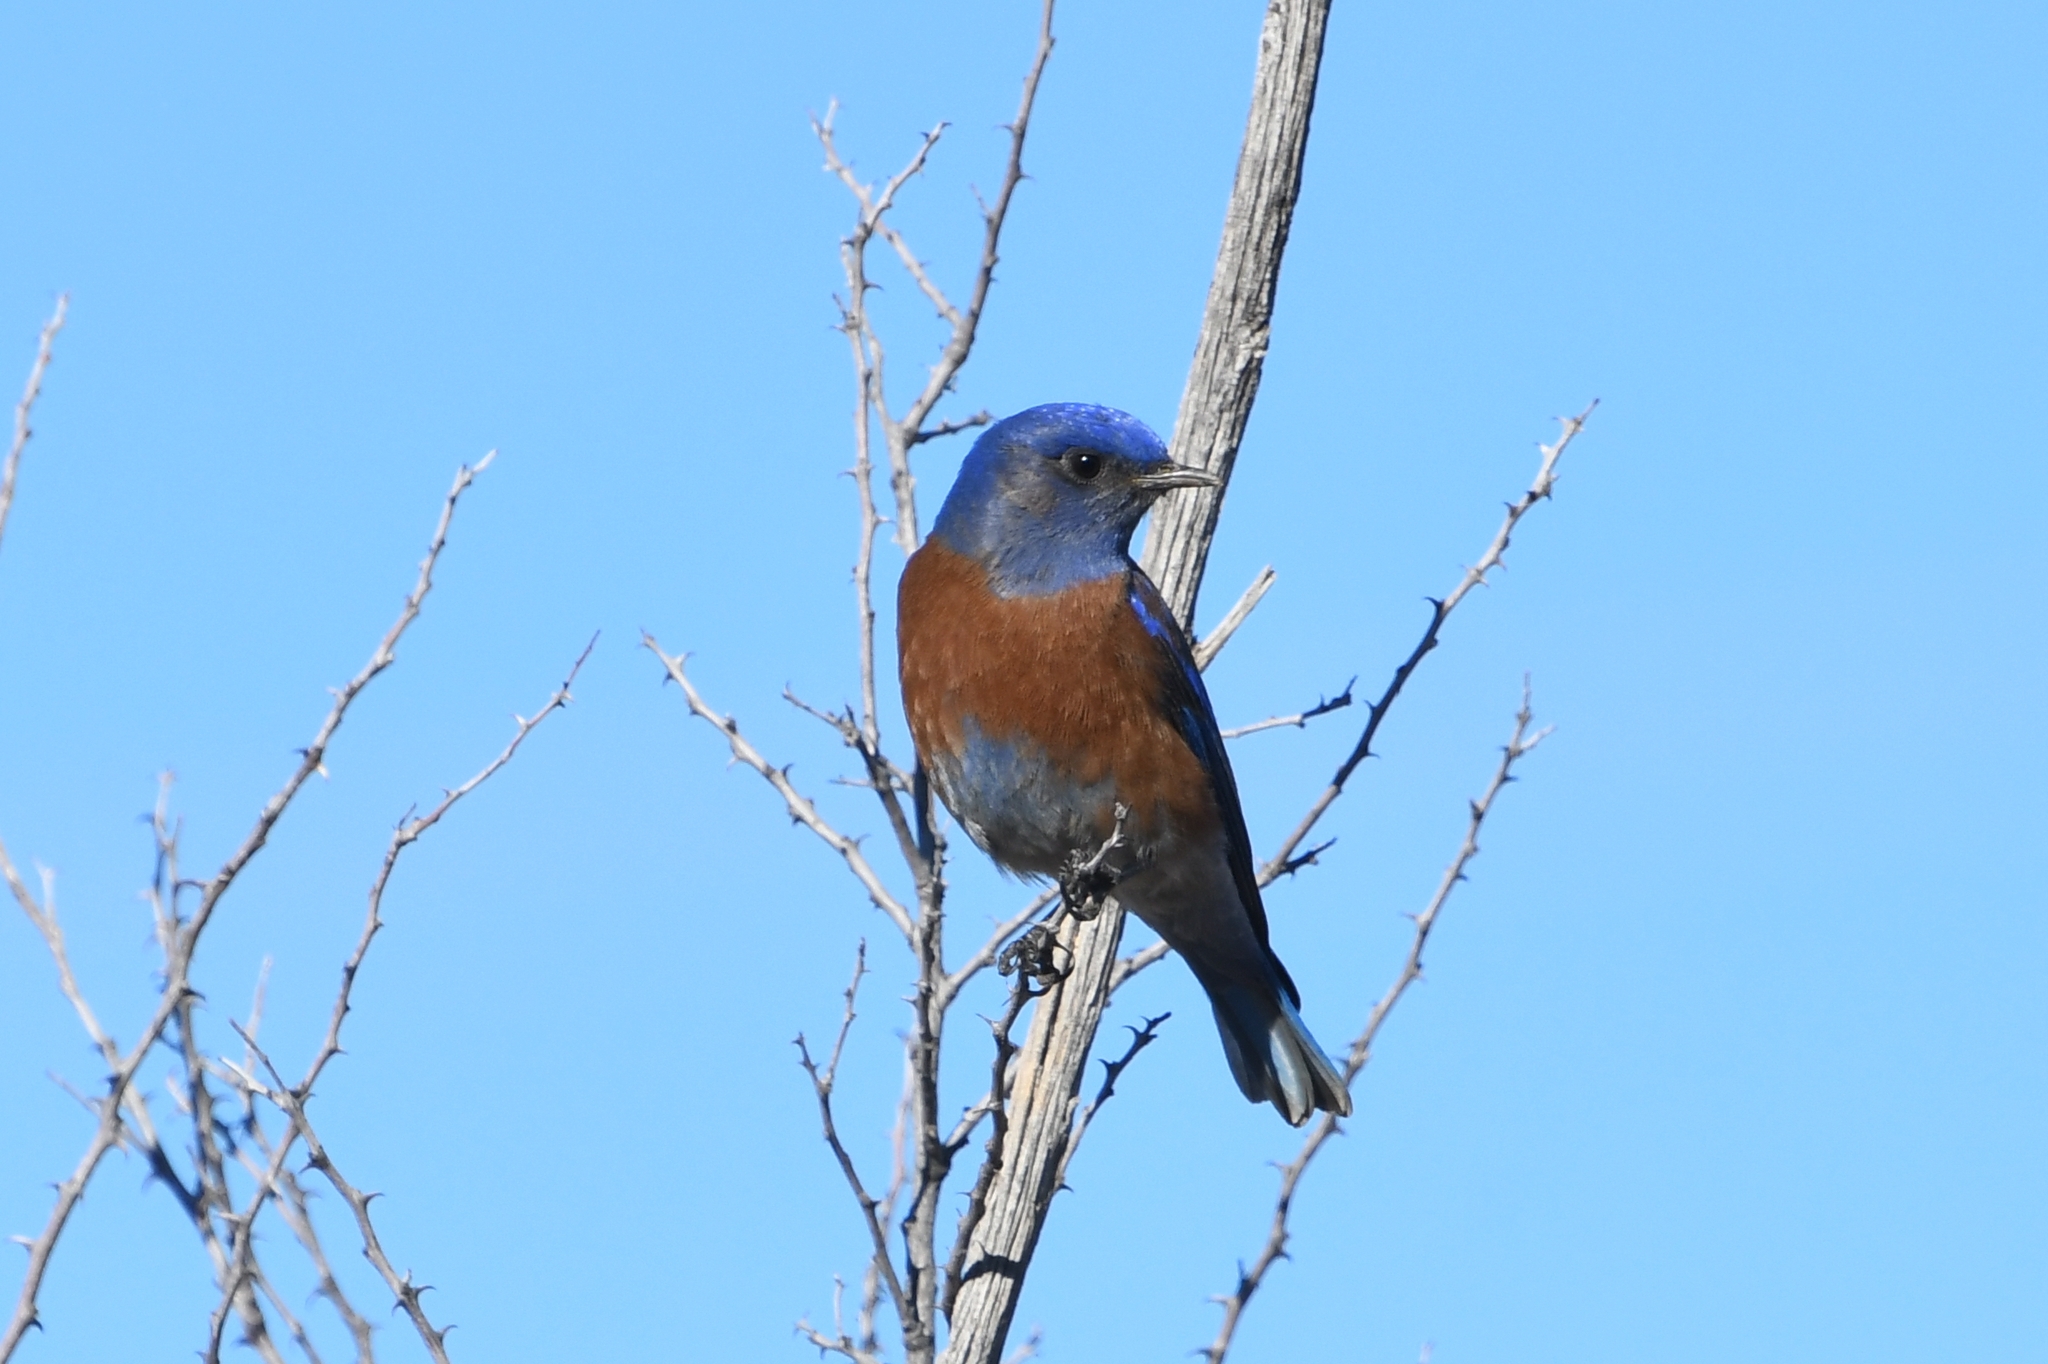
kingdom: Animalia
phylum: Chordata
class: Aves
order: Passeriformes
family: Turdidae
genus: Sialia
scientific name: Sialia mexicana
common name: Western bluebird
